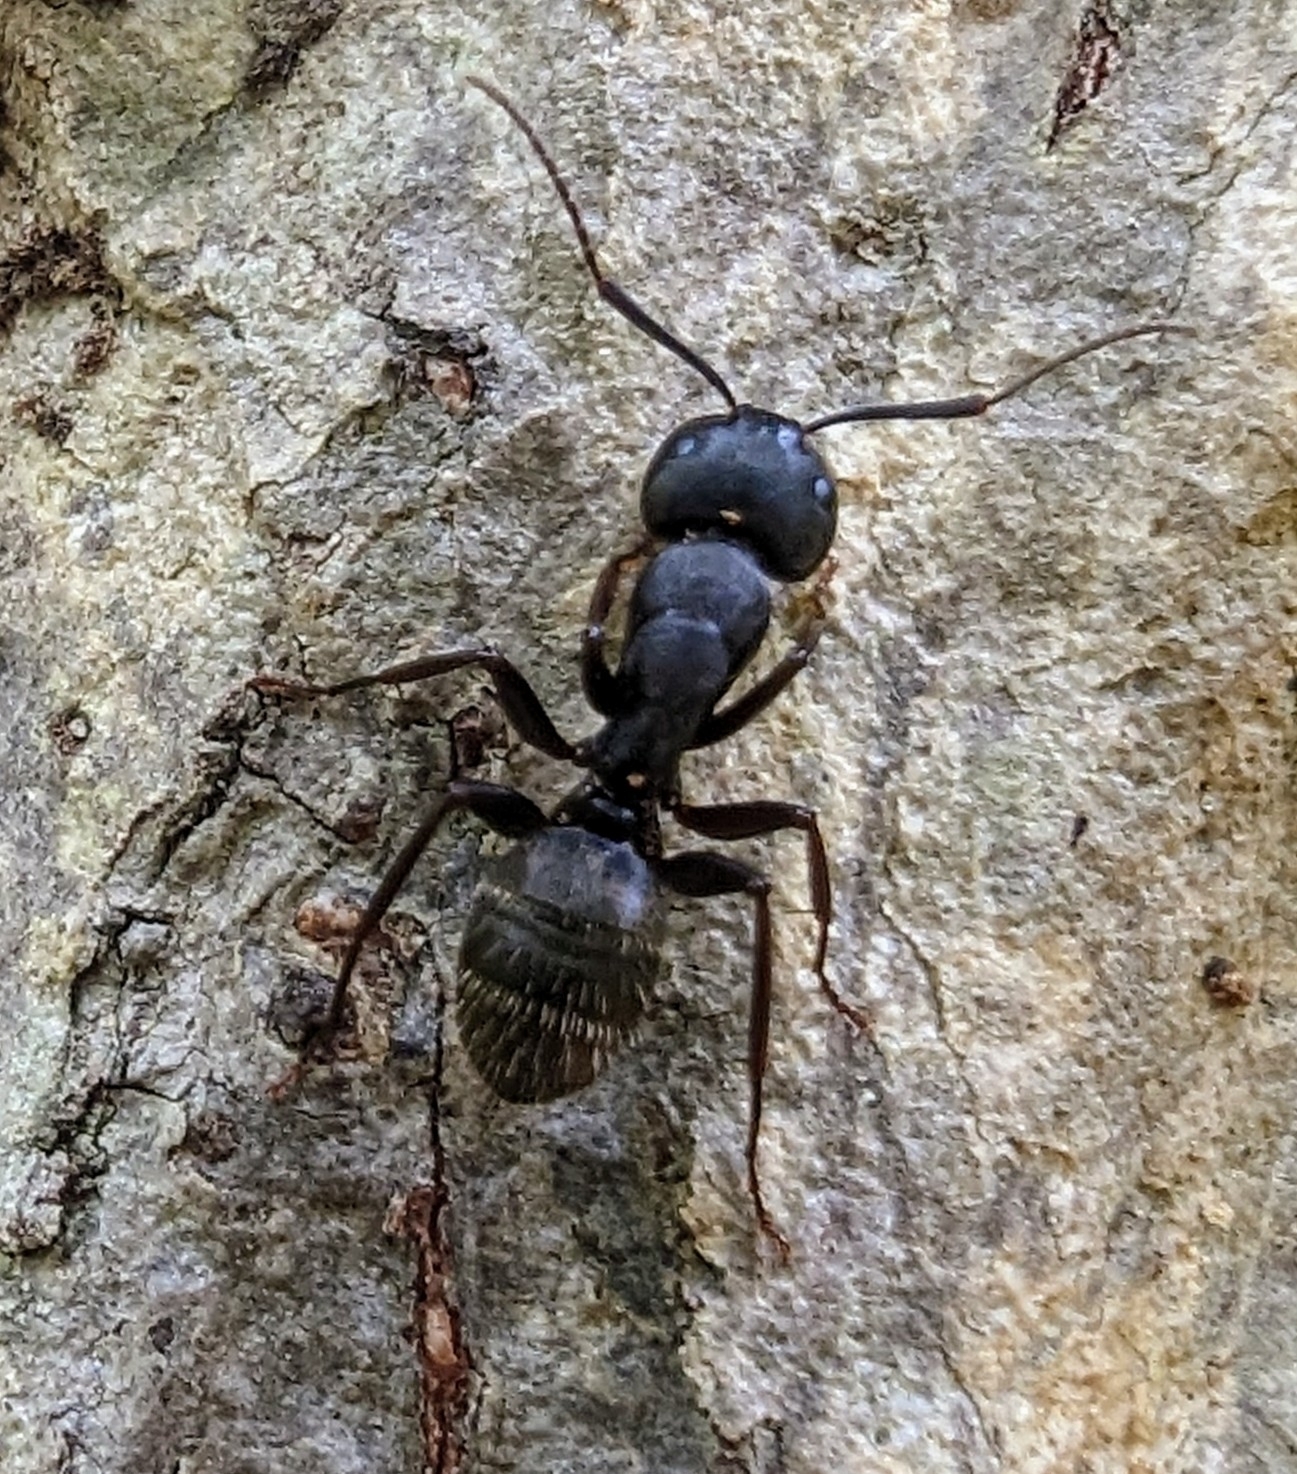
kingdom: Animalia
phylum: Arthropoda
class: Insecta
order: Hymenoptera
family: Formicidae
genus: Camponotus
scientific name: Camponotus pennsylvanicus
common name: Black carpenter ant
